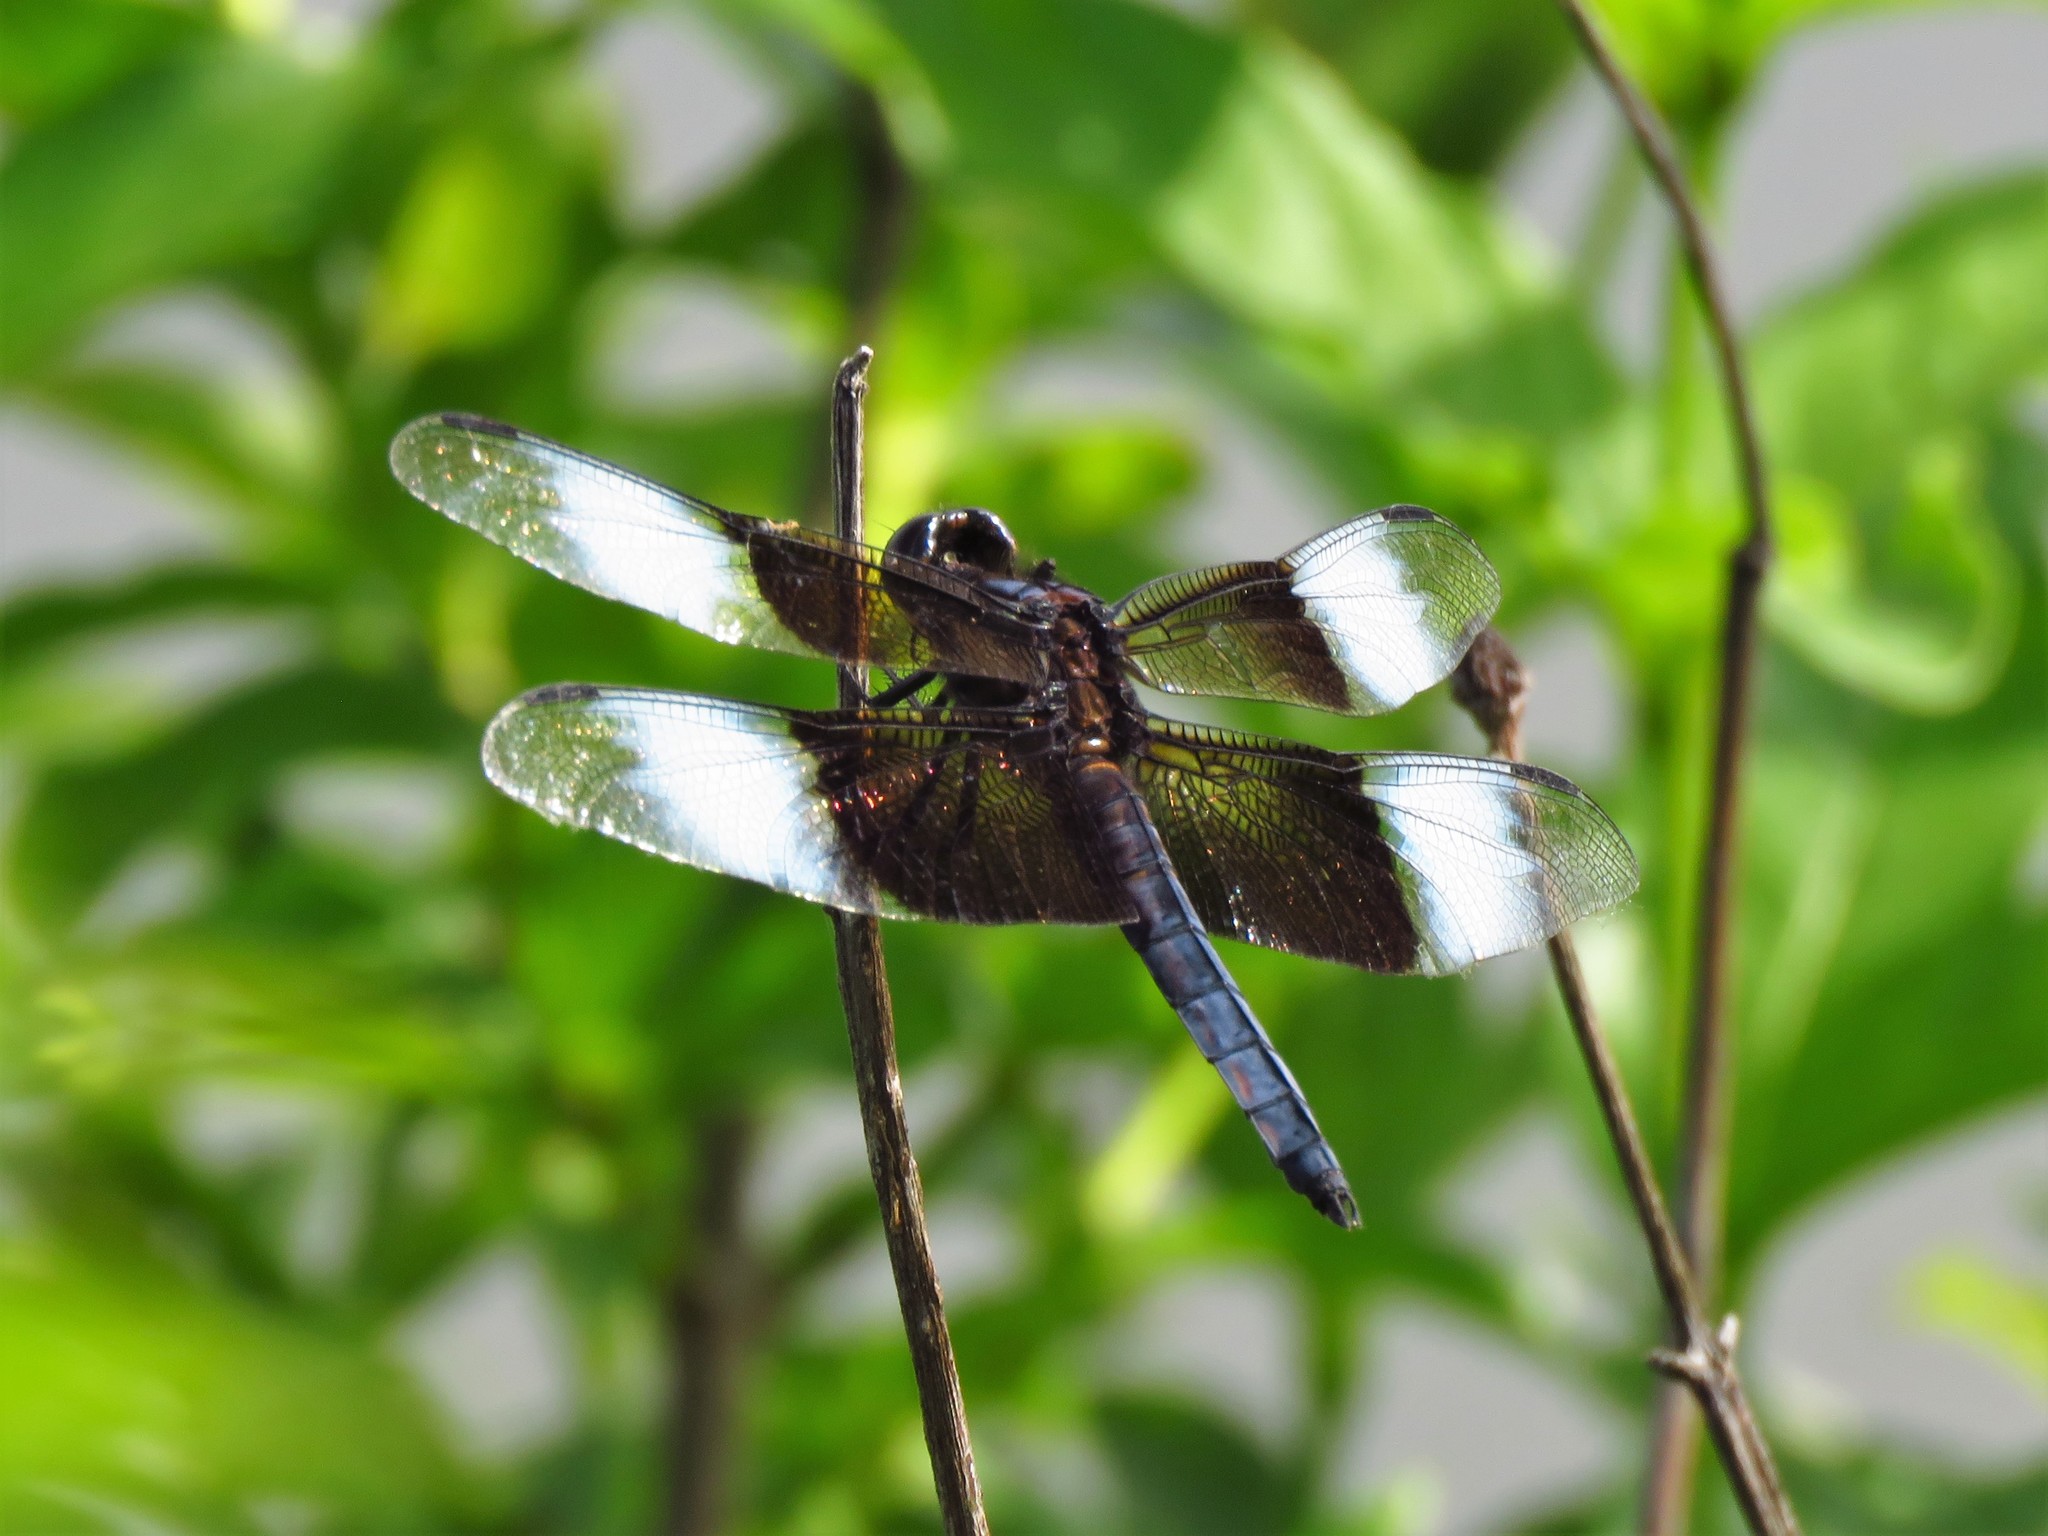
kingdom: Animalia
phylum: Arthropoda
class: Insecta
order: Odonata
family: Libellulidae
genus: Libellula
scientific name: Libellula luctuosa
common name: Widow skimmer
